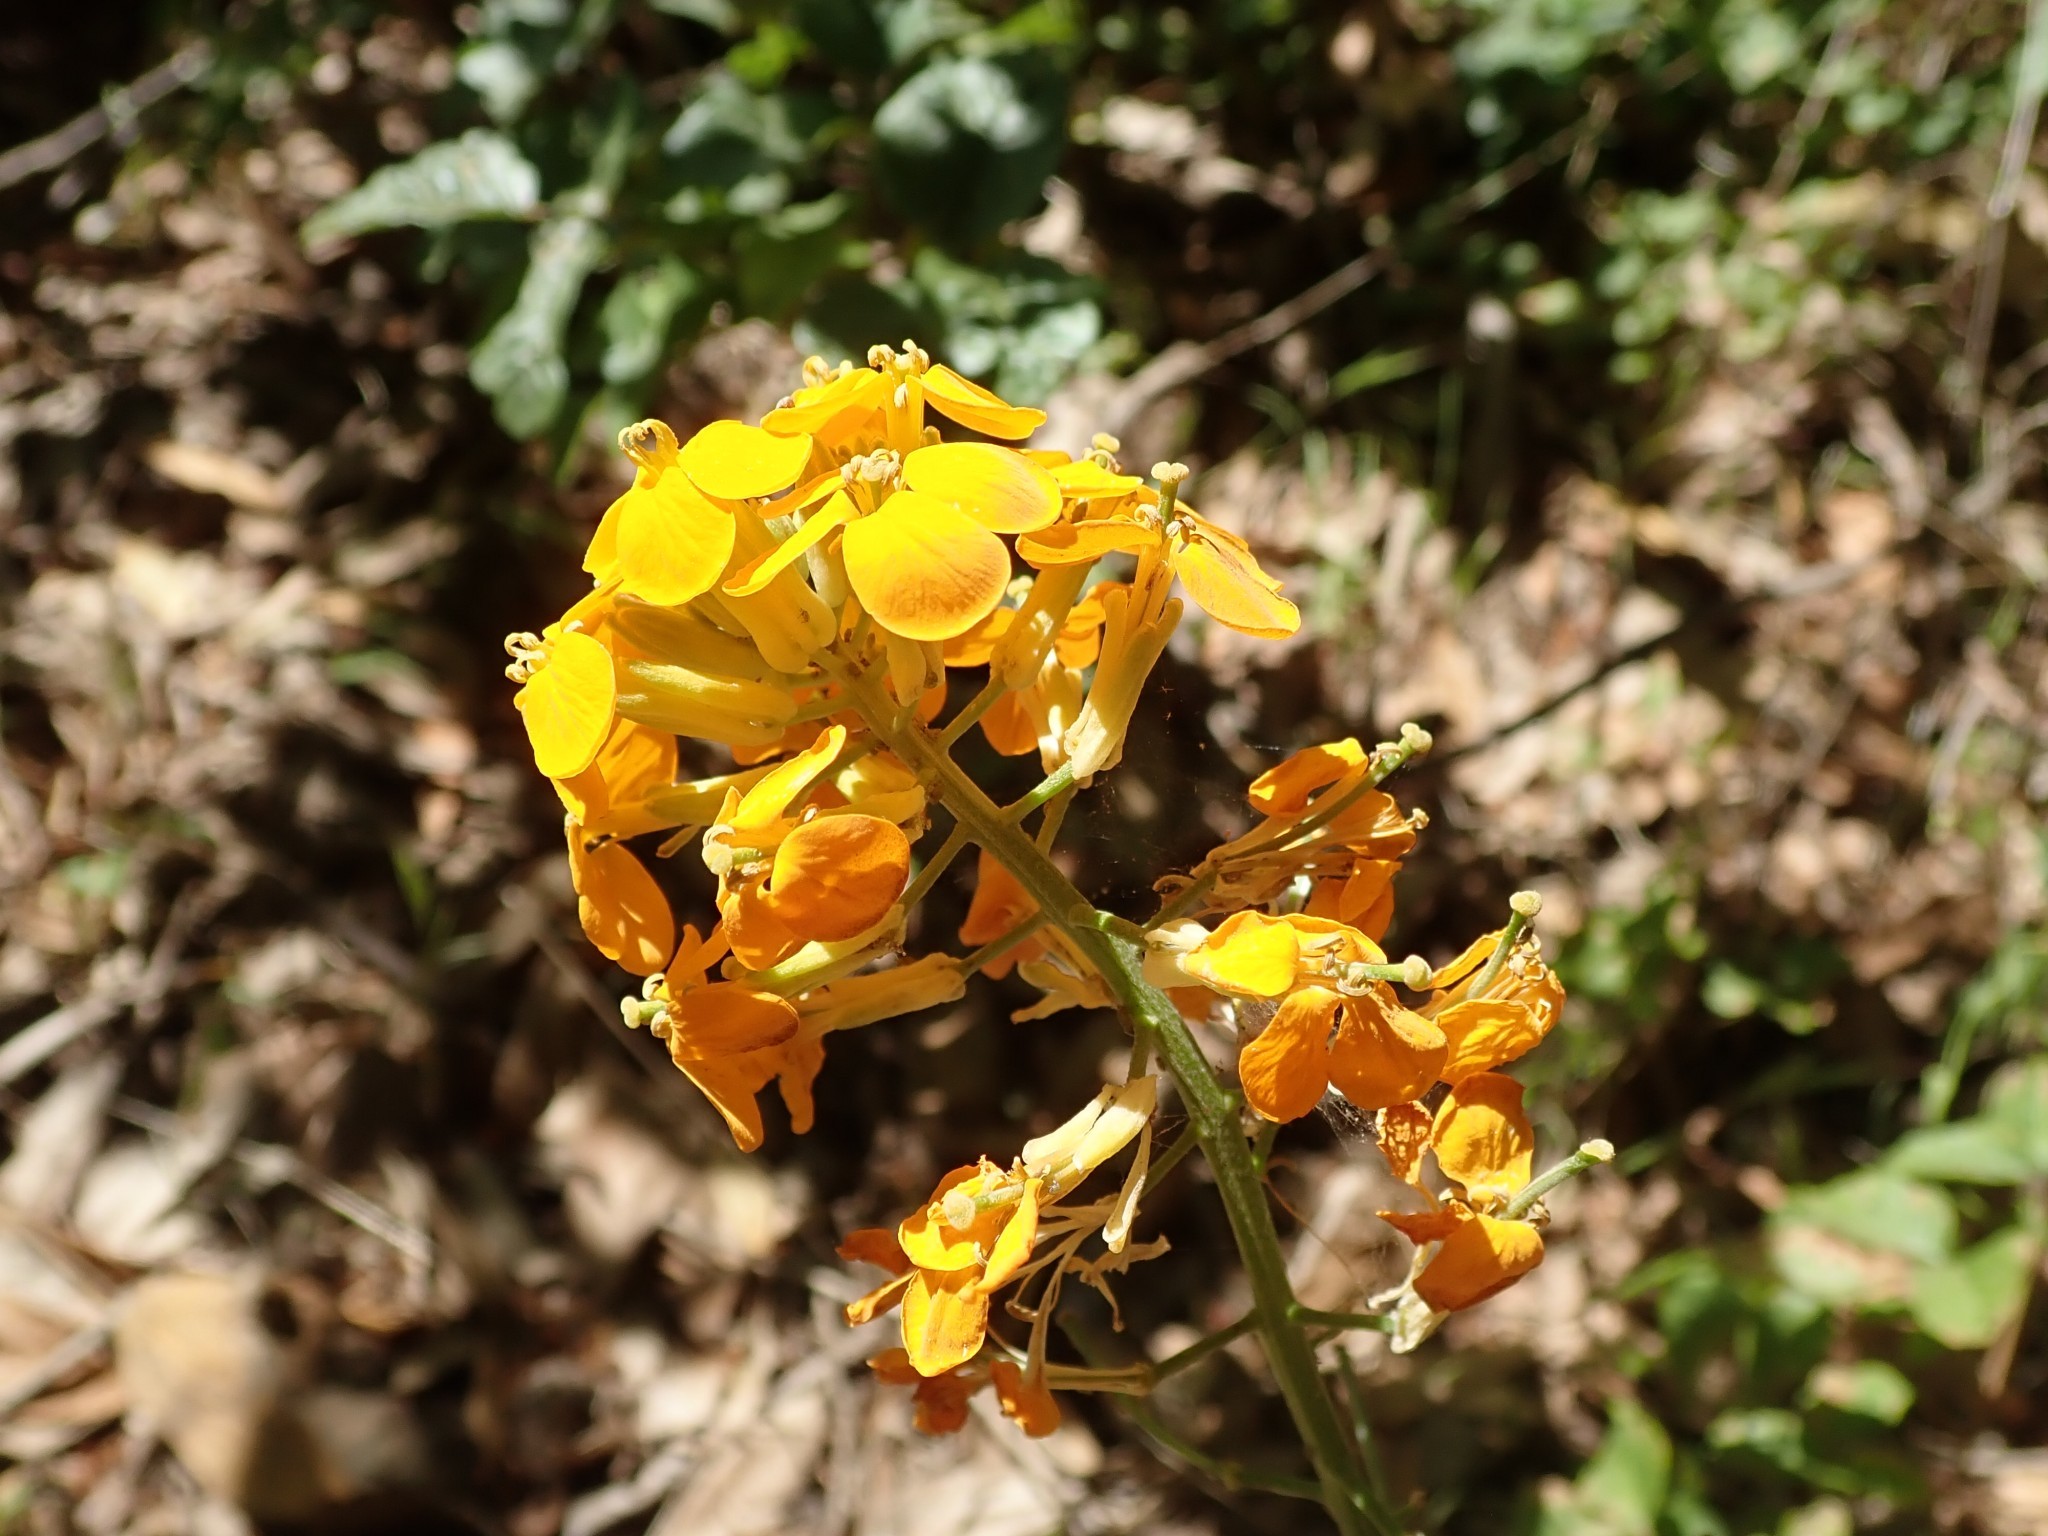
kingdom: Plantae
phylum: Tracheophyta
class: Magnoliopsida
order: Brassicales
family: Brassicaceae
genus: Erysimum
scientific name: Erysimum capitatum
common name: Western wallflower
